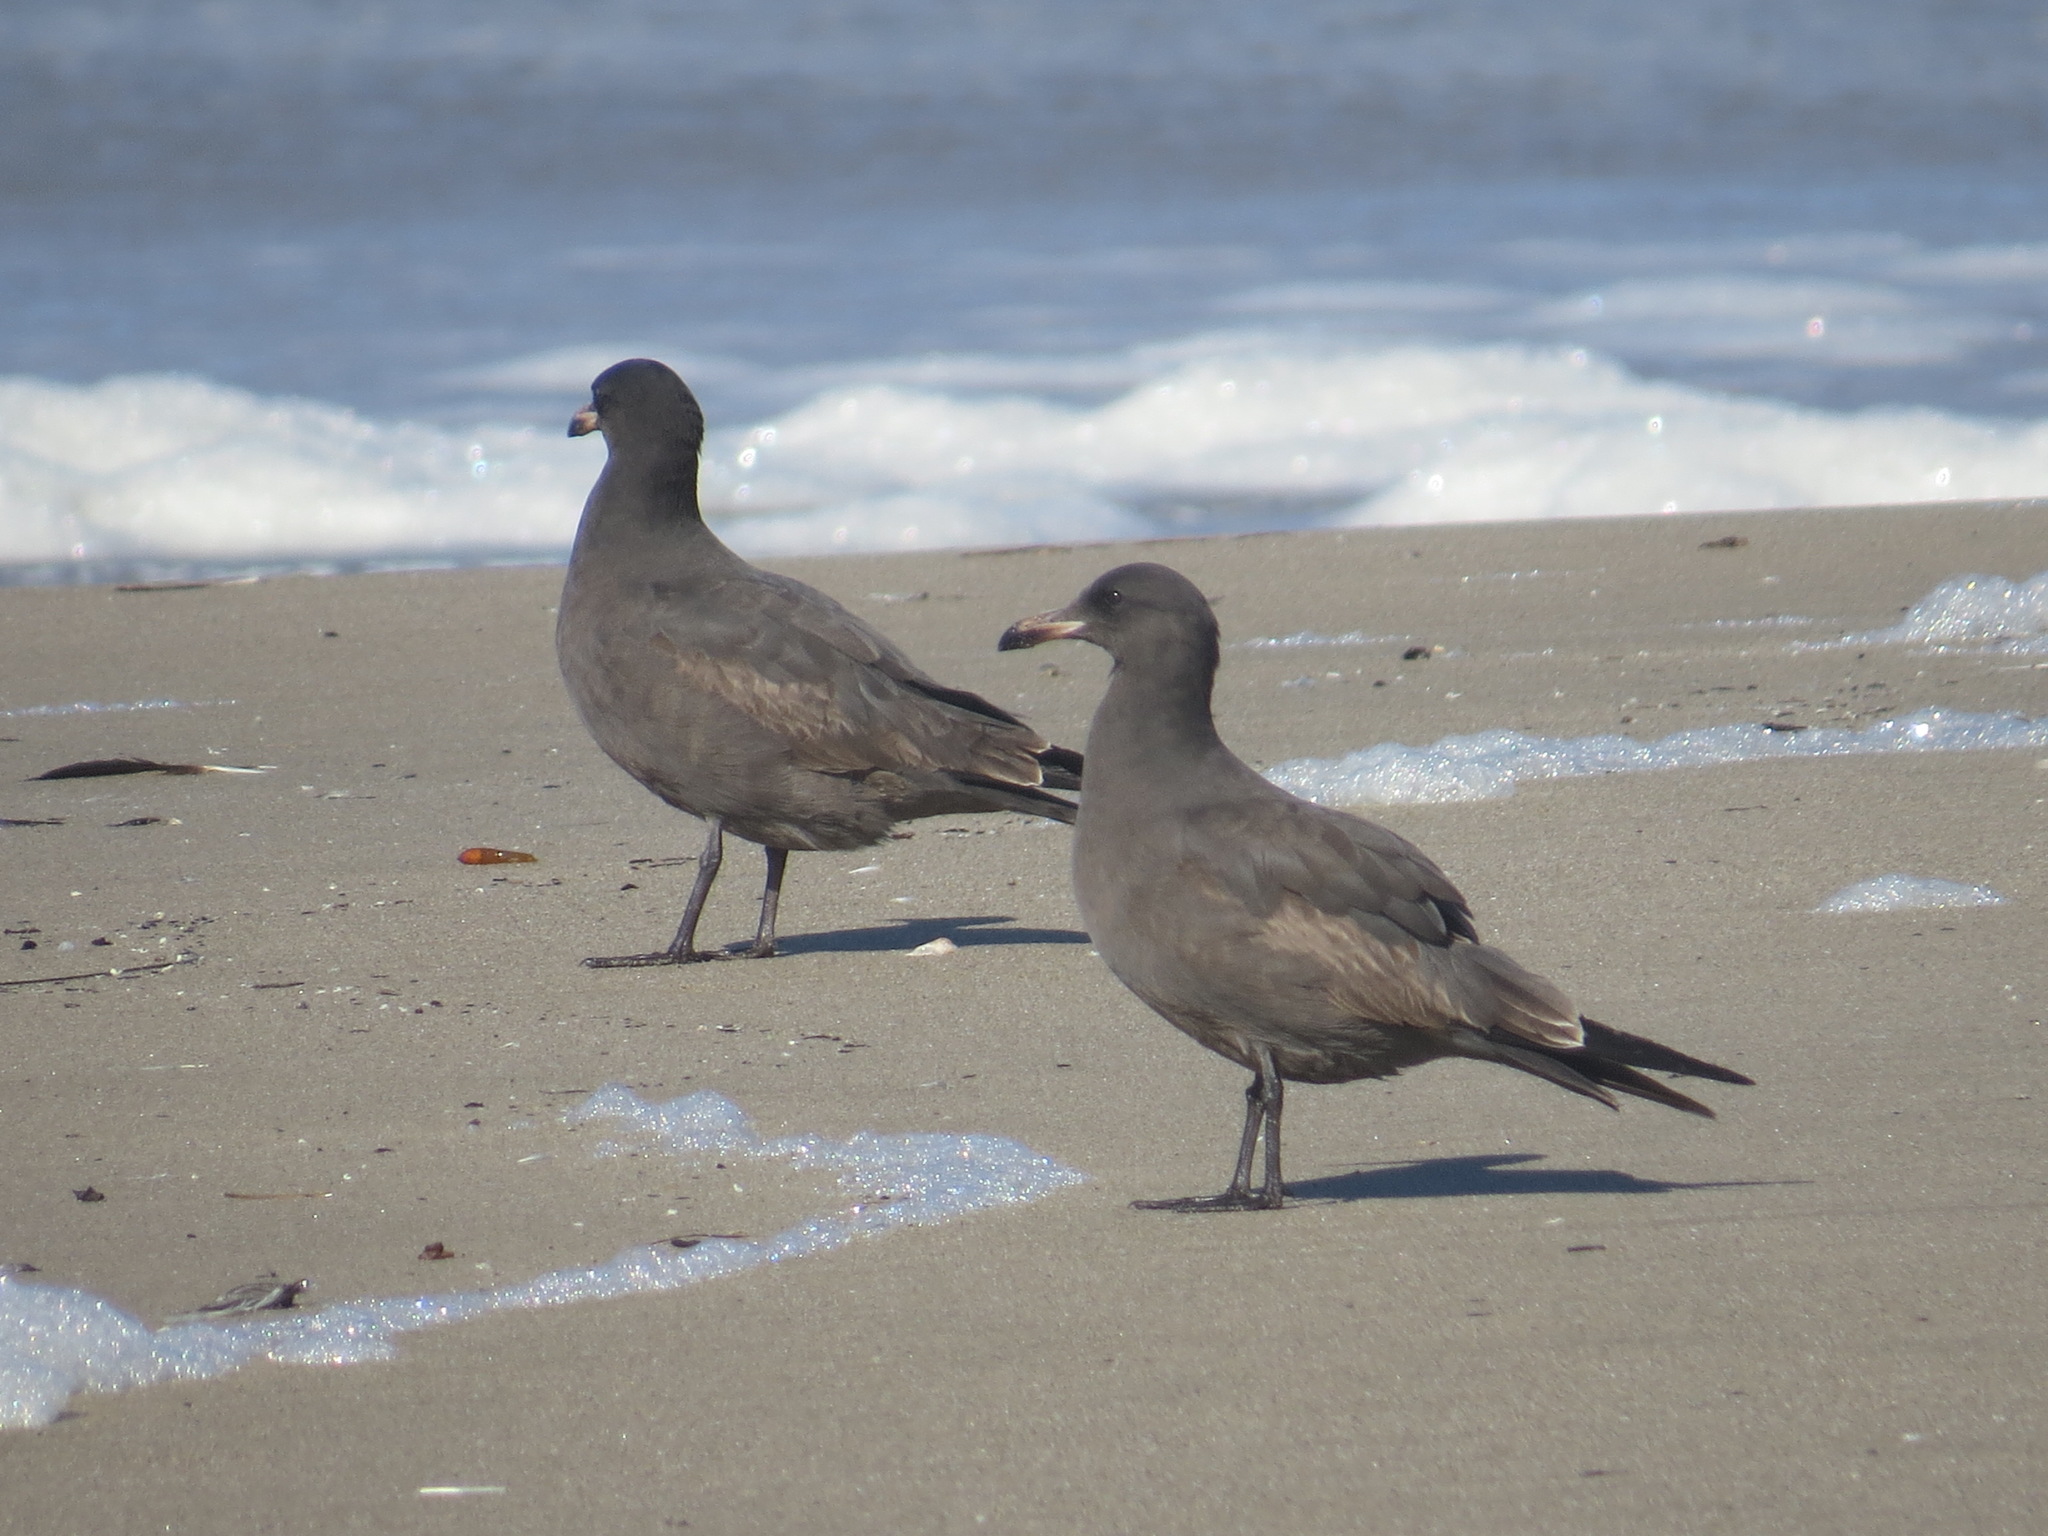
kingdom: Animalia
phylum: Chordata
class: Aves
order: Charadriiformes
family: Laridae
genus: Larus
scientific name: Larus heermanni
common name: Heermann's gull
